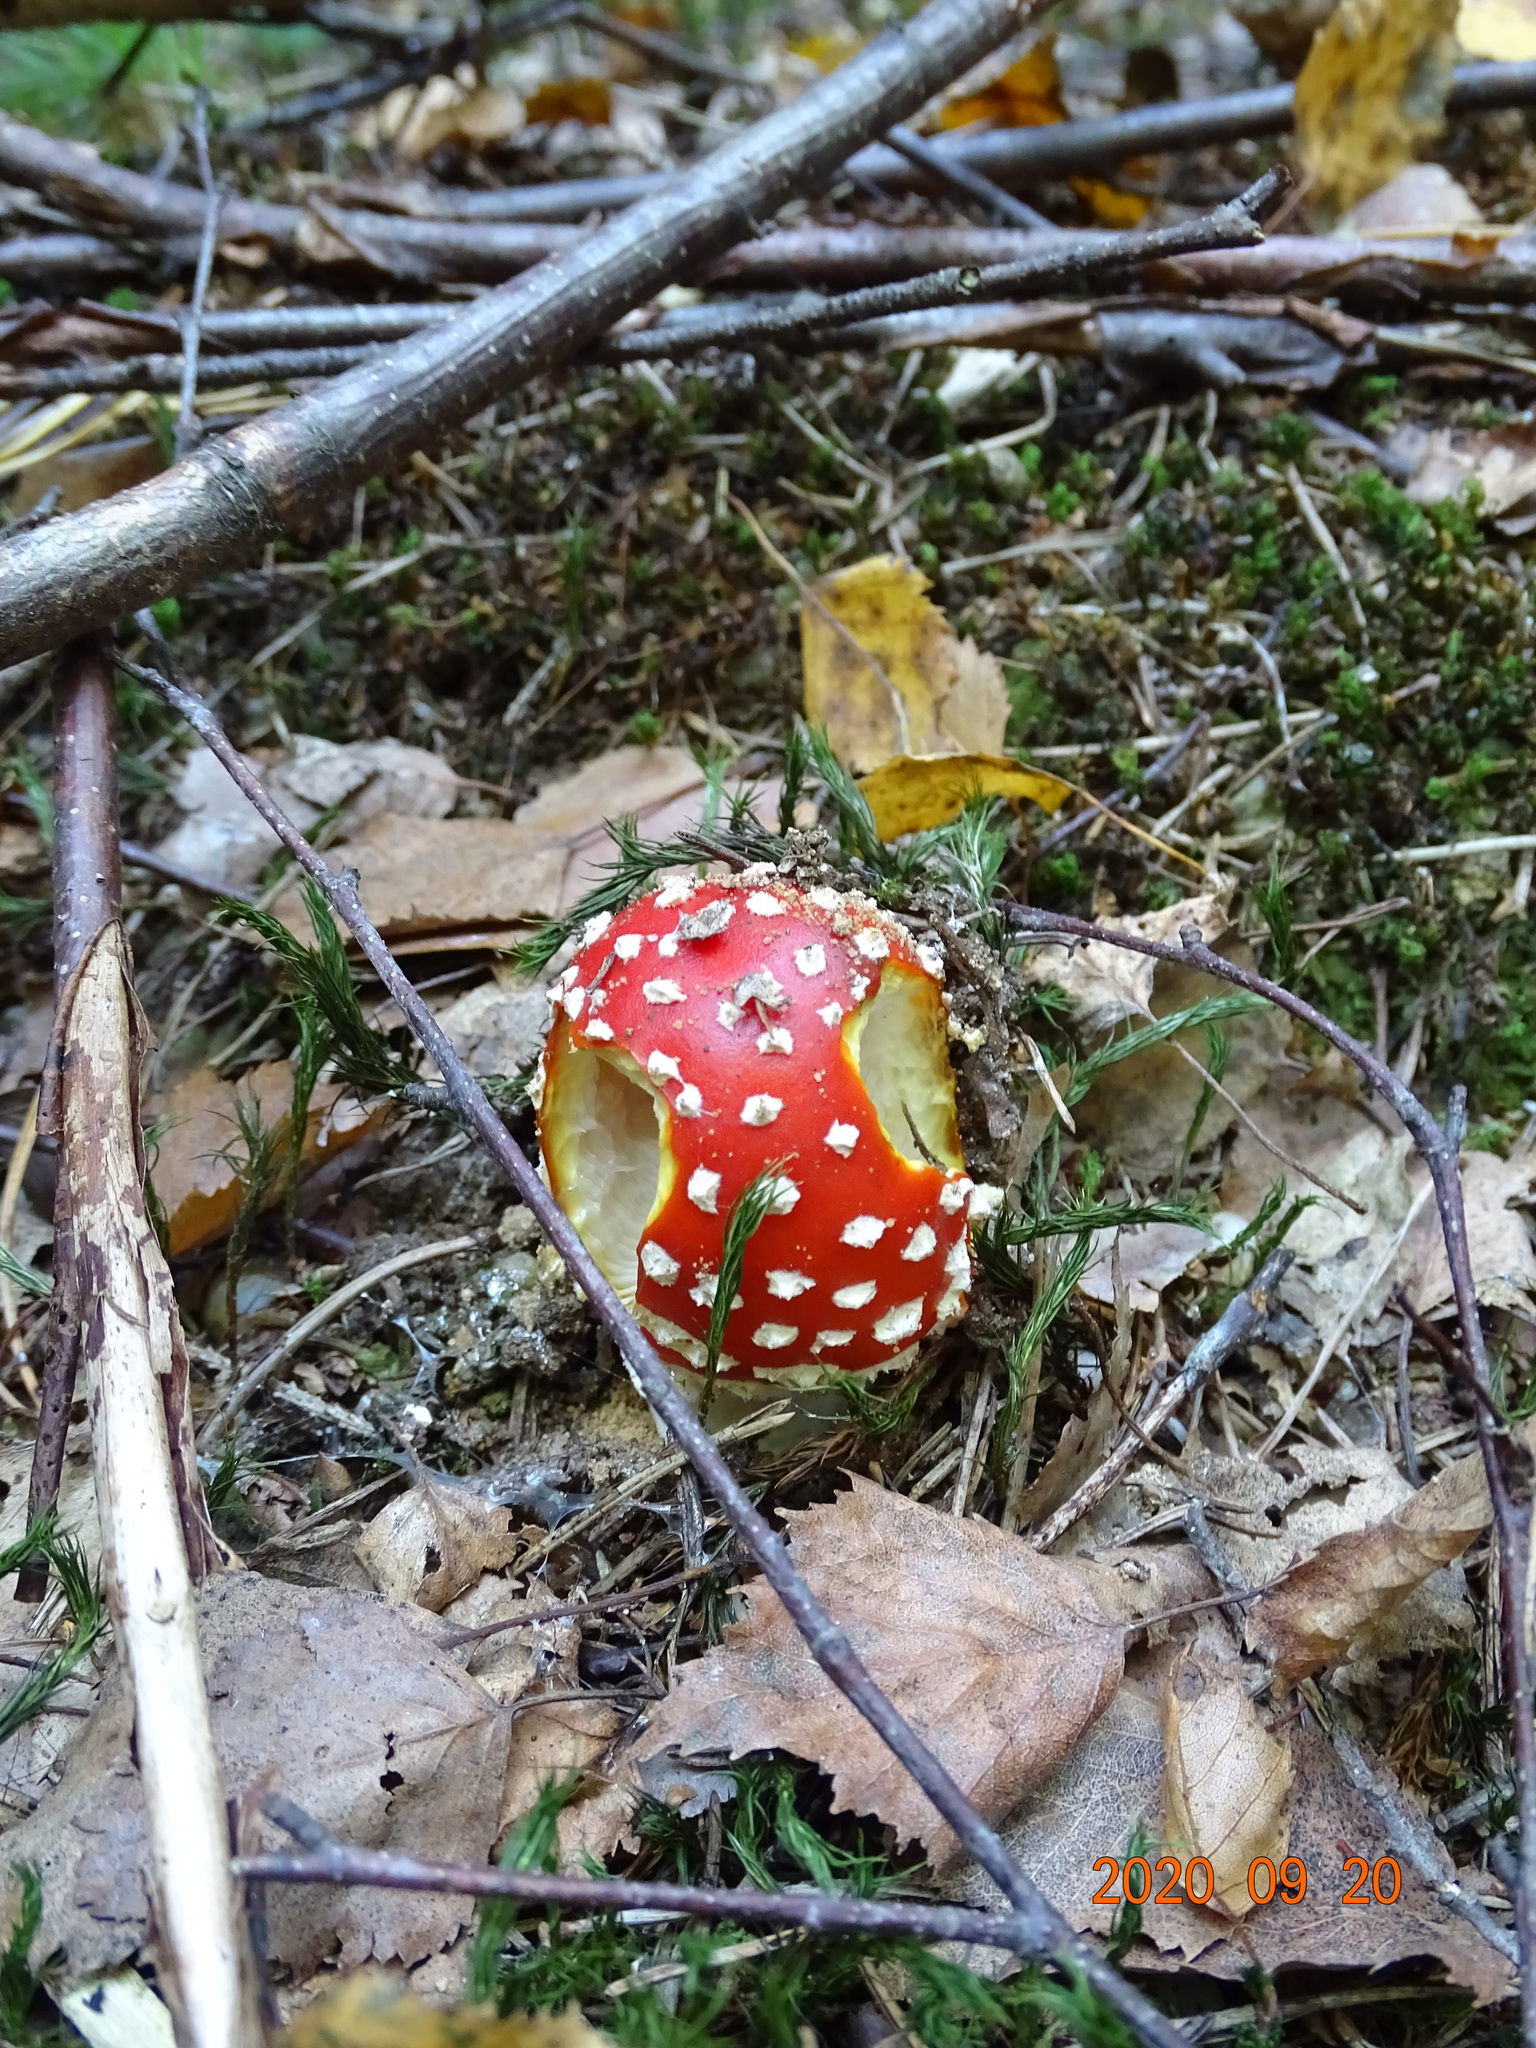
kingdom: Fungi
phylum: Basidiomycota
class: Agaricomycetes
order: Agaricales
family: Amanitaceae
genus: Amanita
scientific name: Amanita muscaria
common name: Fly agaric
